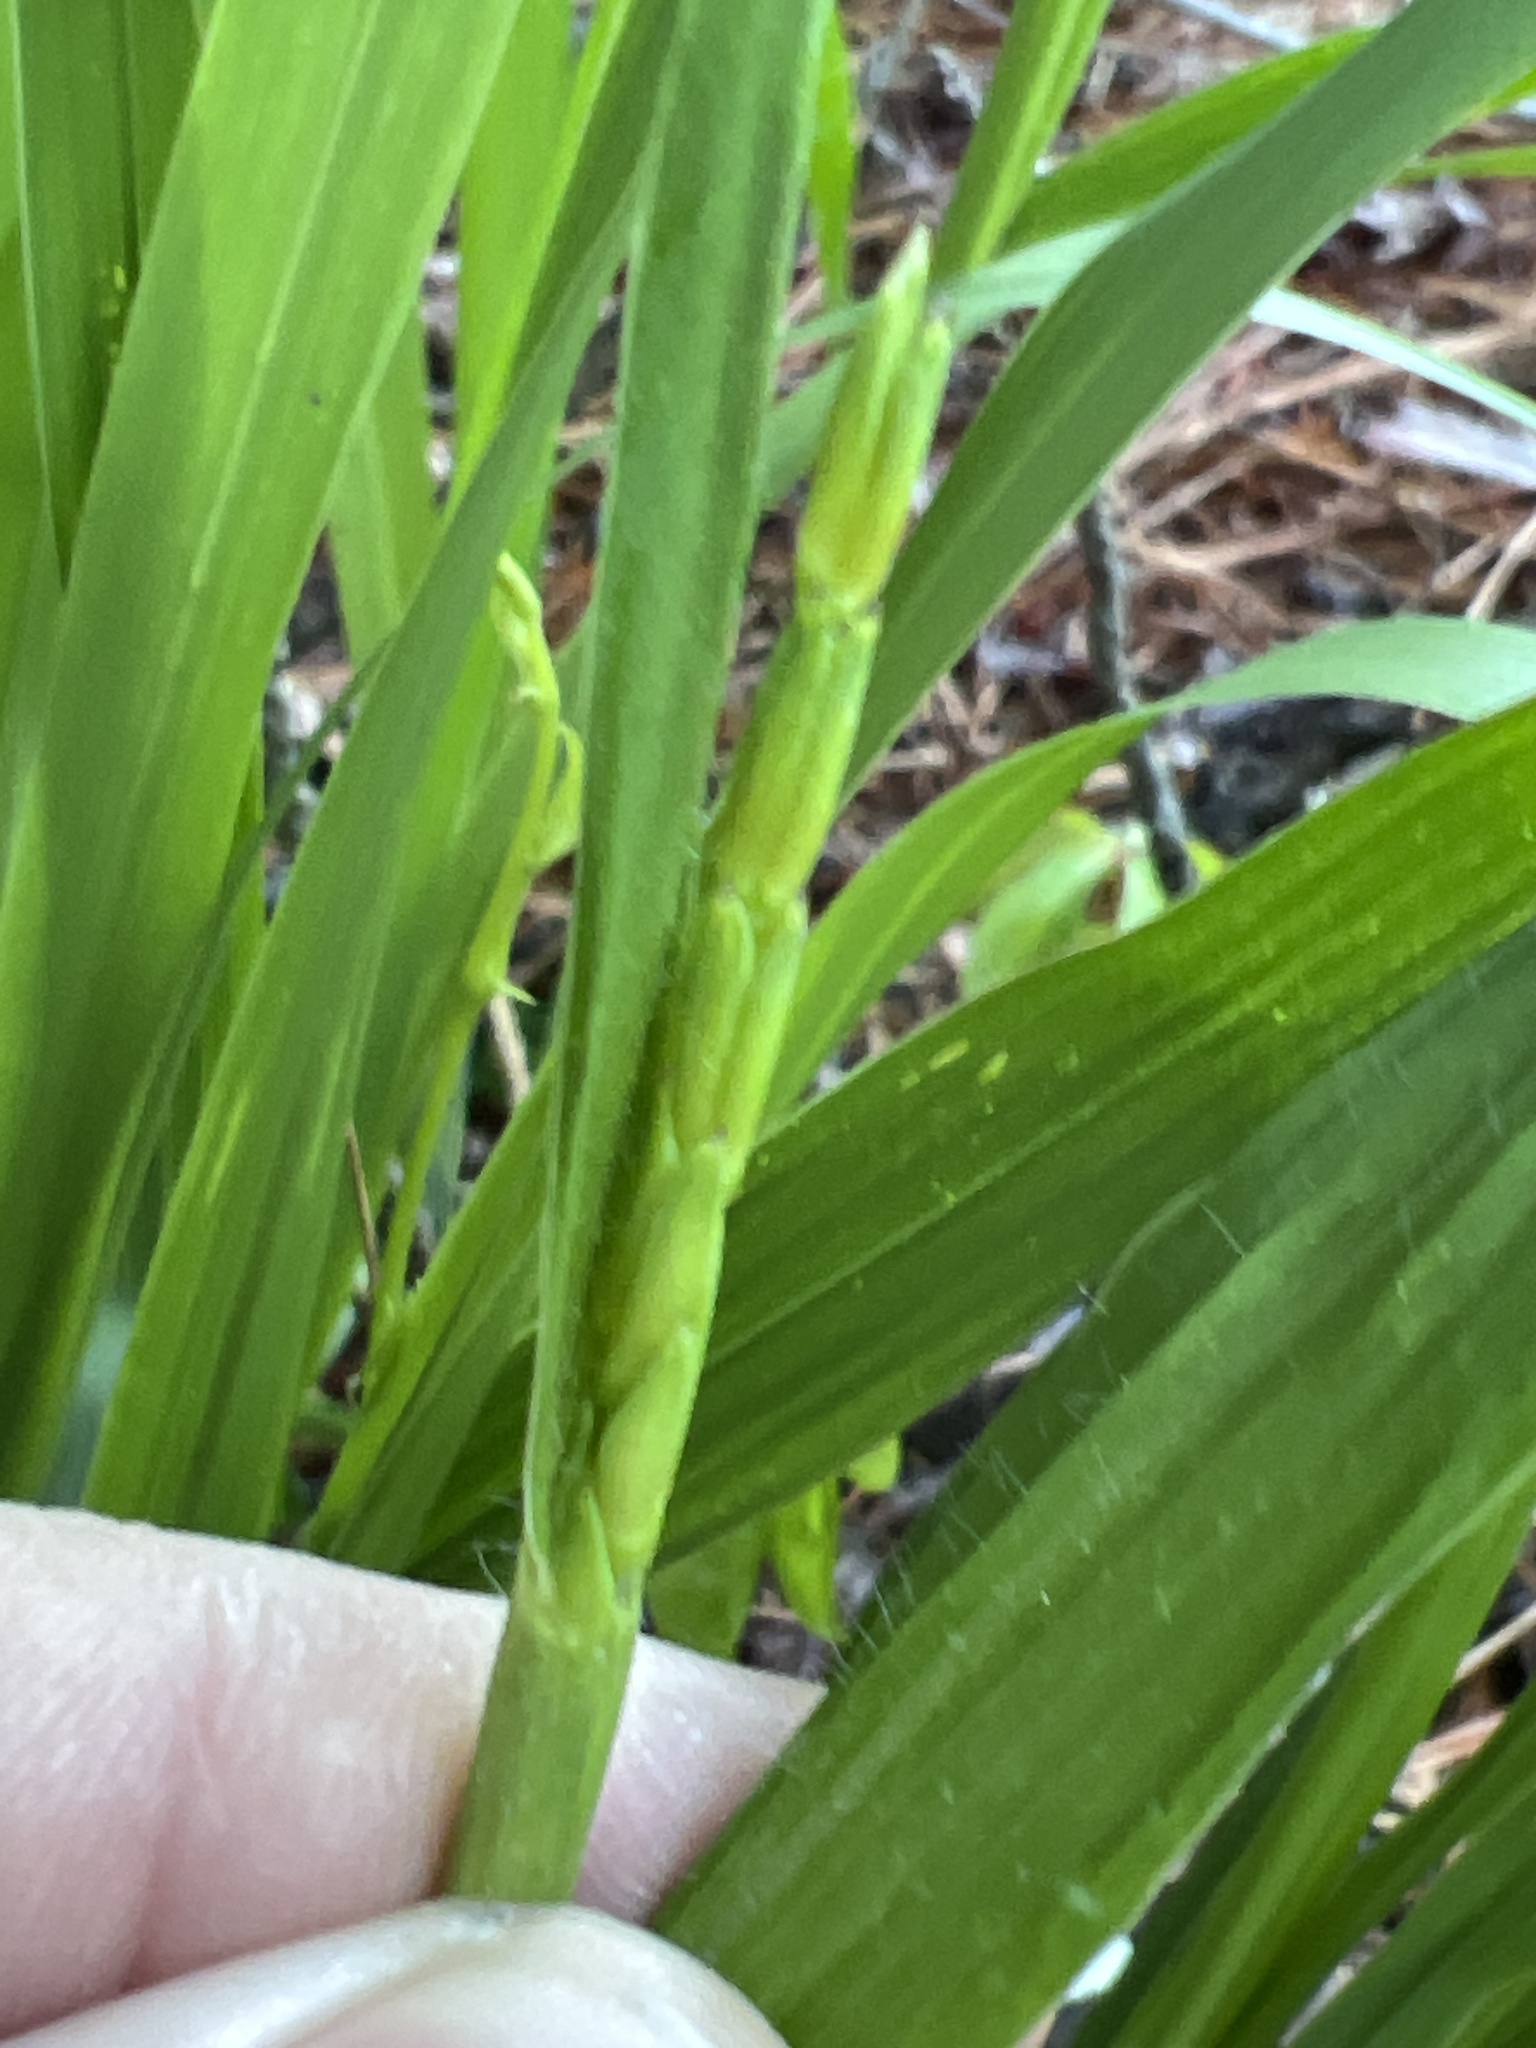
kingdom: Plantae
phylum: Tracheophyta
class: Liliopsida
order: Poales
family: Poaceae
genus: Tripsacum
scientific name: Tripsacum dactyloides
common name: Buffalo-grass
